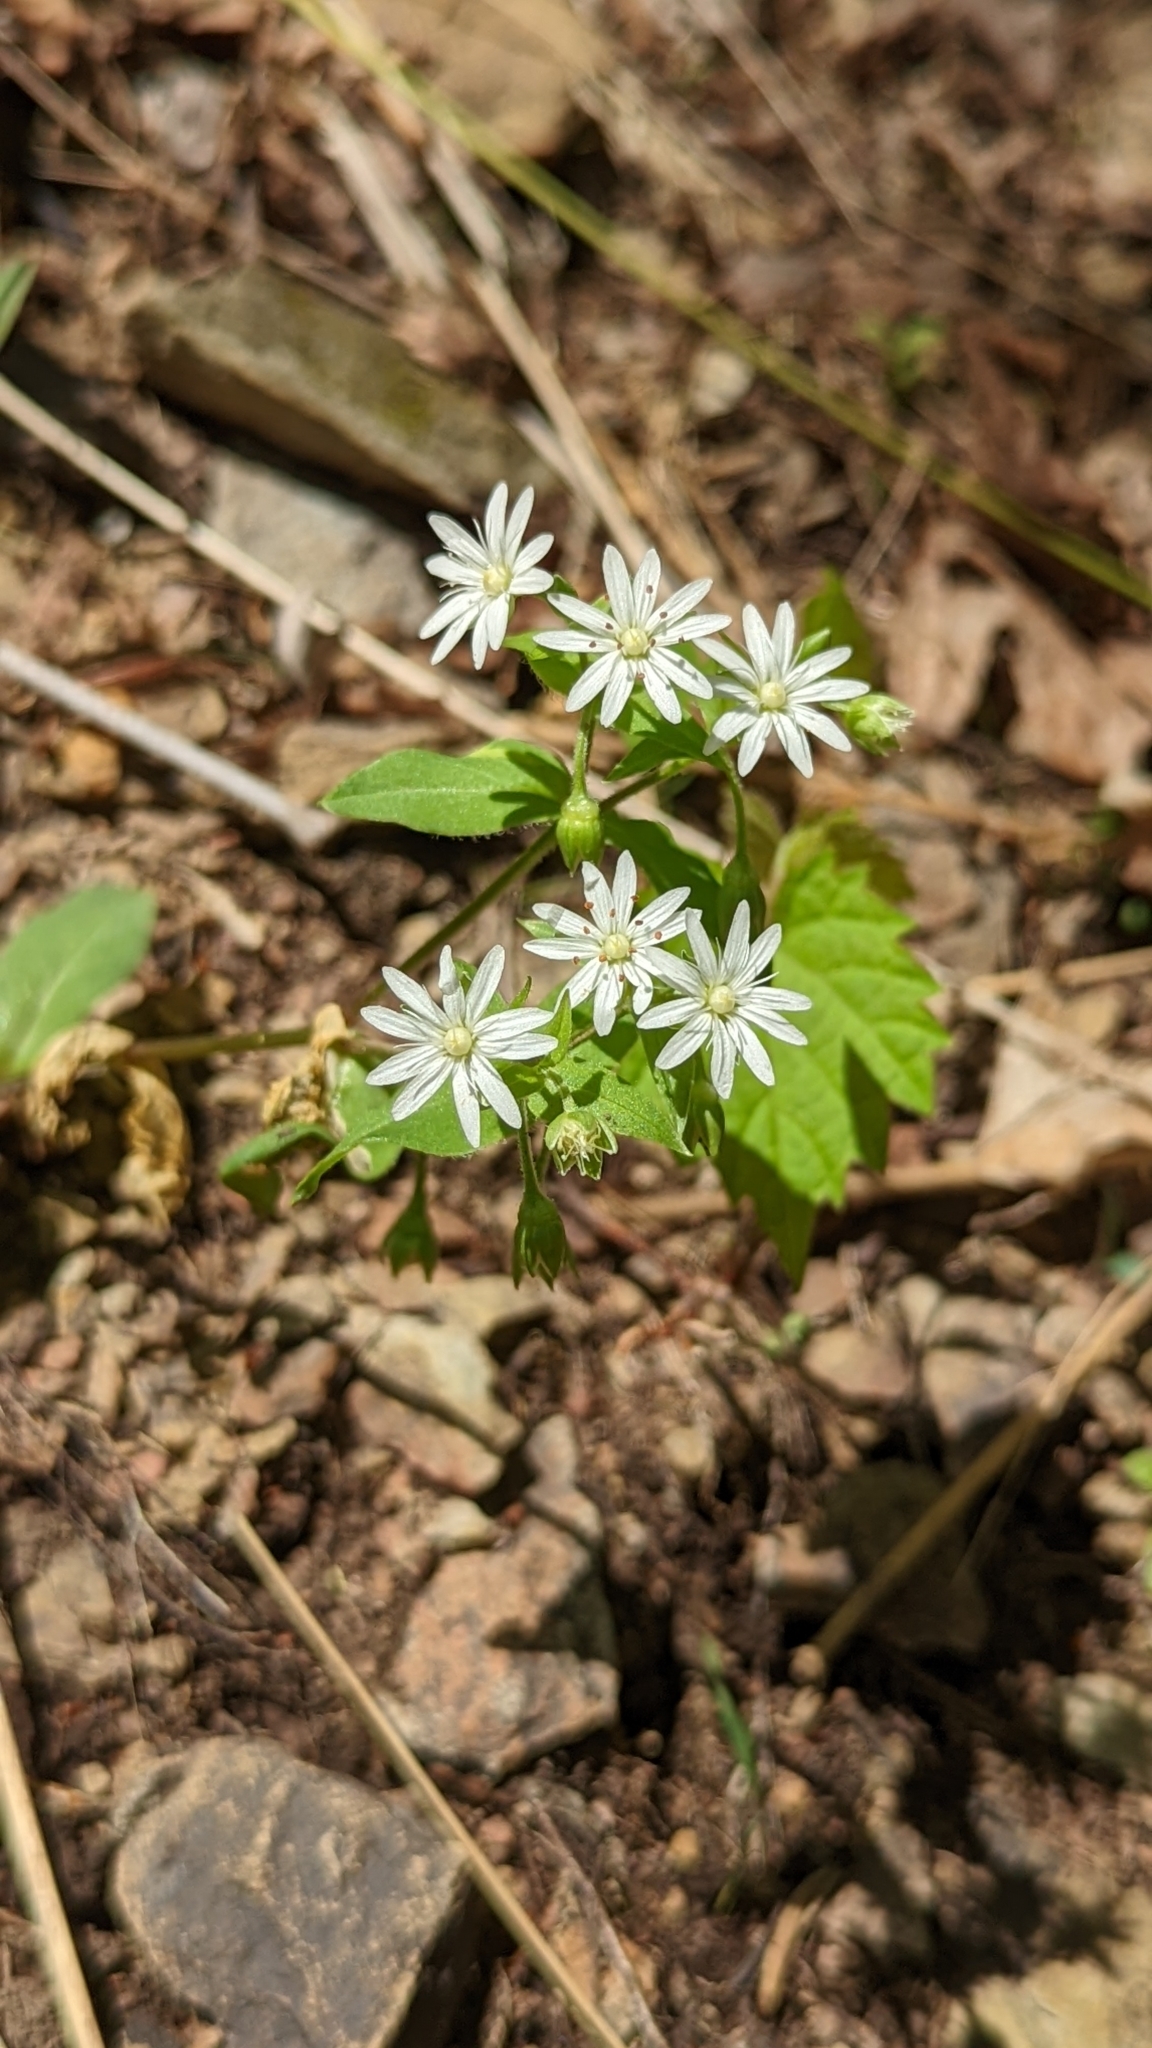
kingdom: Plantae
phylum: Tracheophyta
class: Magnoliopsida
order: Caryophyllales
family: Caryophyllaceae
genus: Stellaria
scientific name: Stellaria pubera
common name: Star chickweed
